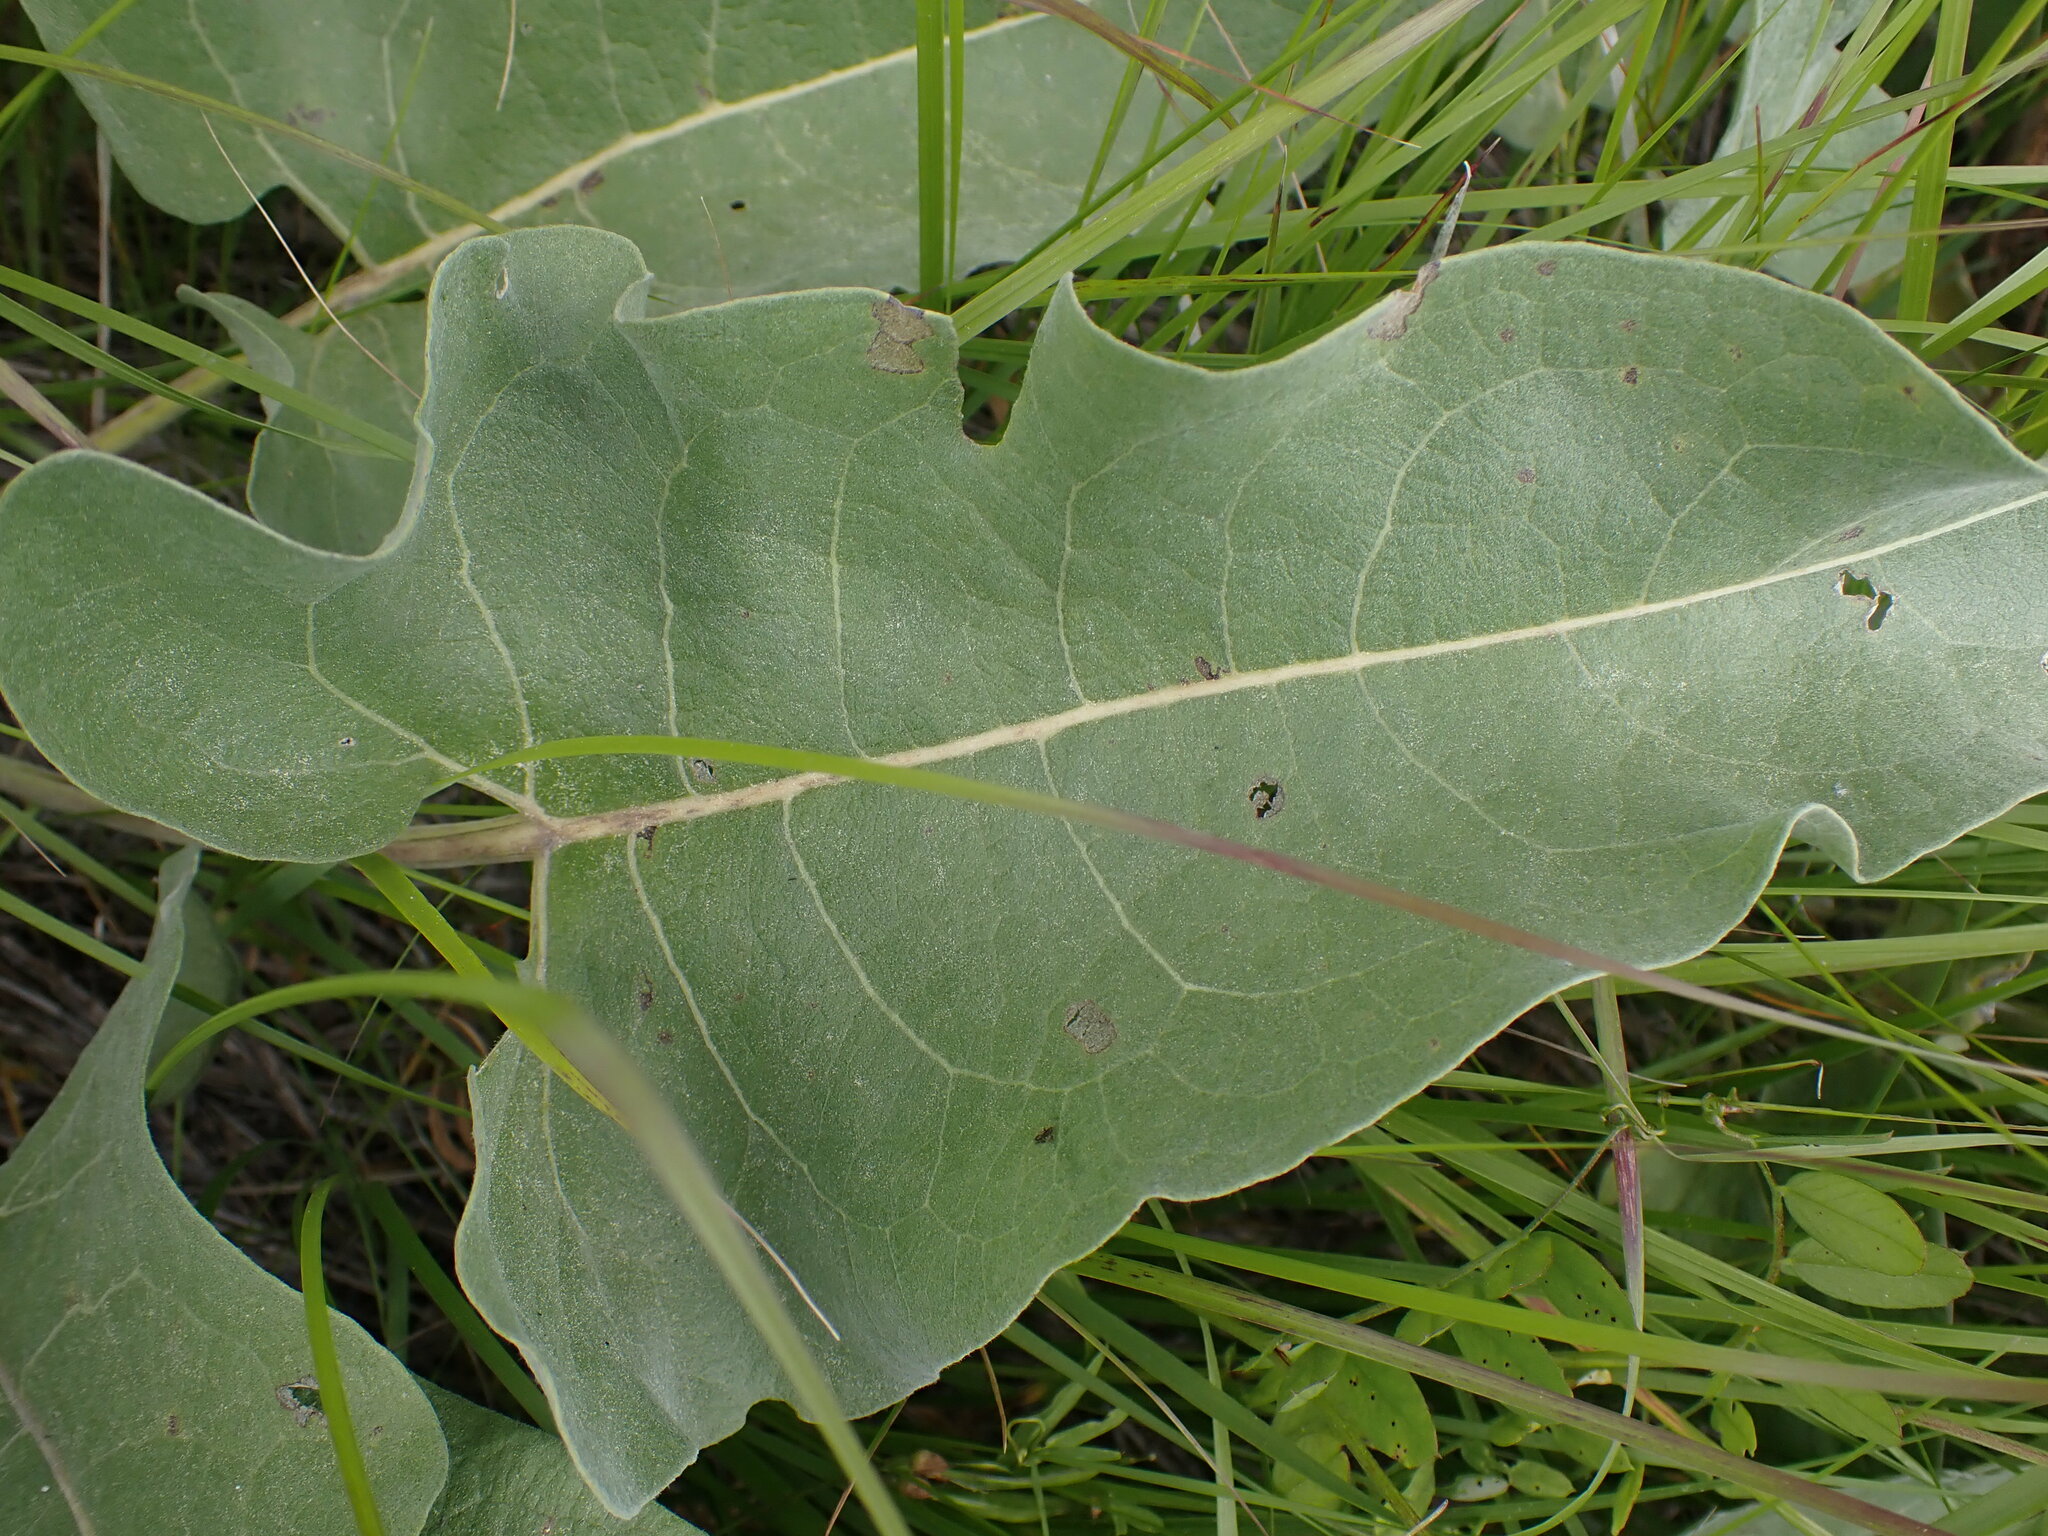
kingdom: Plantae
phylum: Tracheophyta
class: Magnoliopsida
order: Asterales
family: Asteraceae
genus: Wyethia
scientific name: Wyethia sagittata
